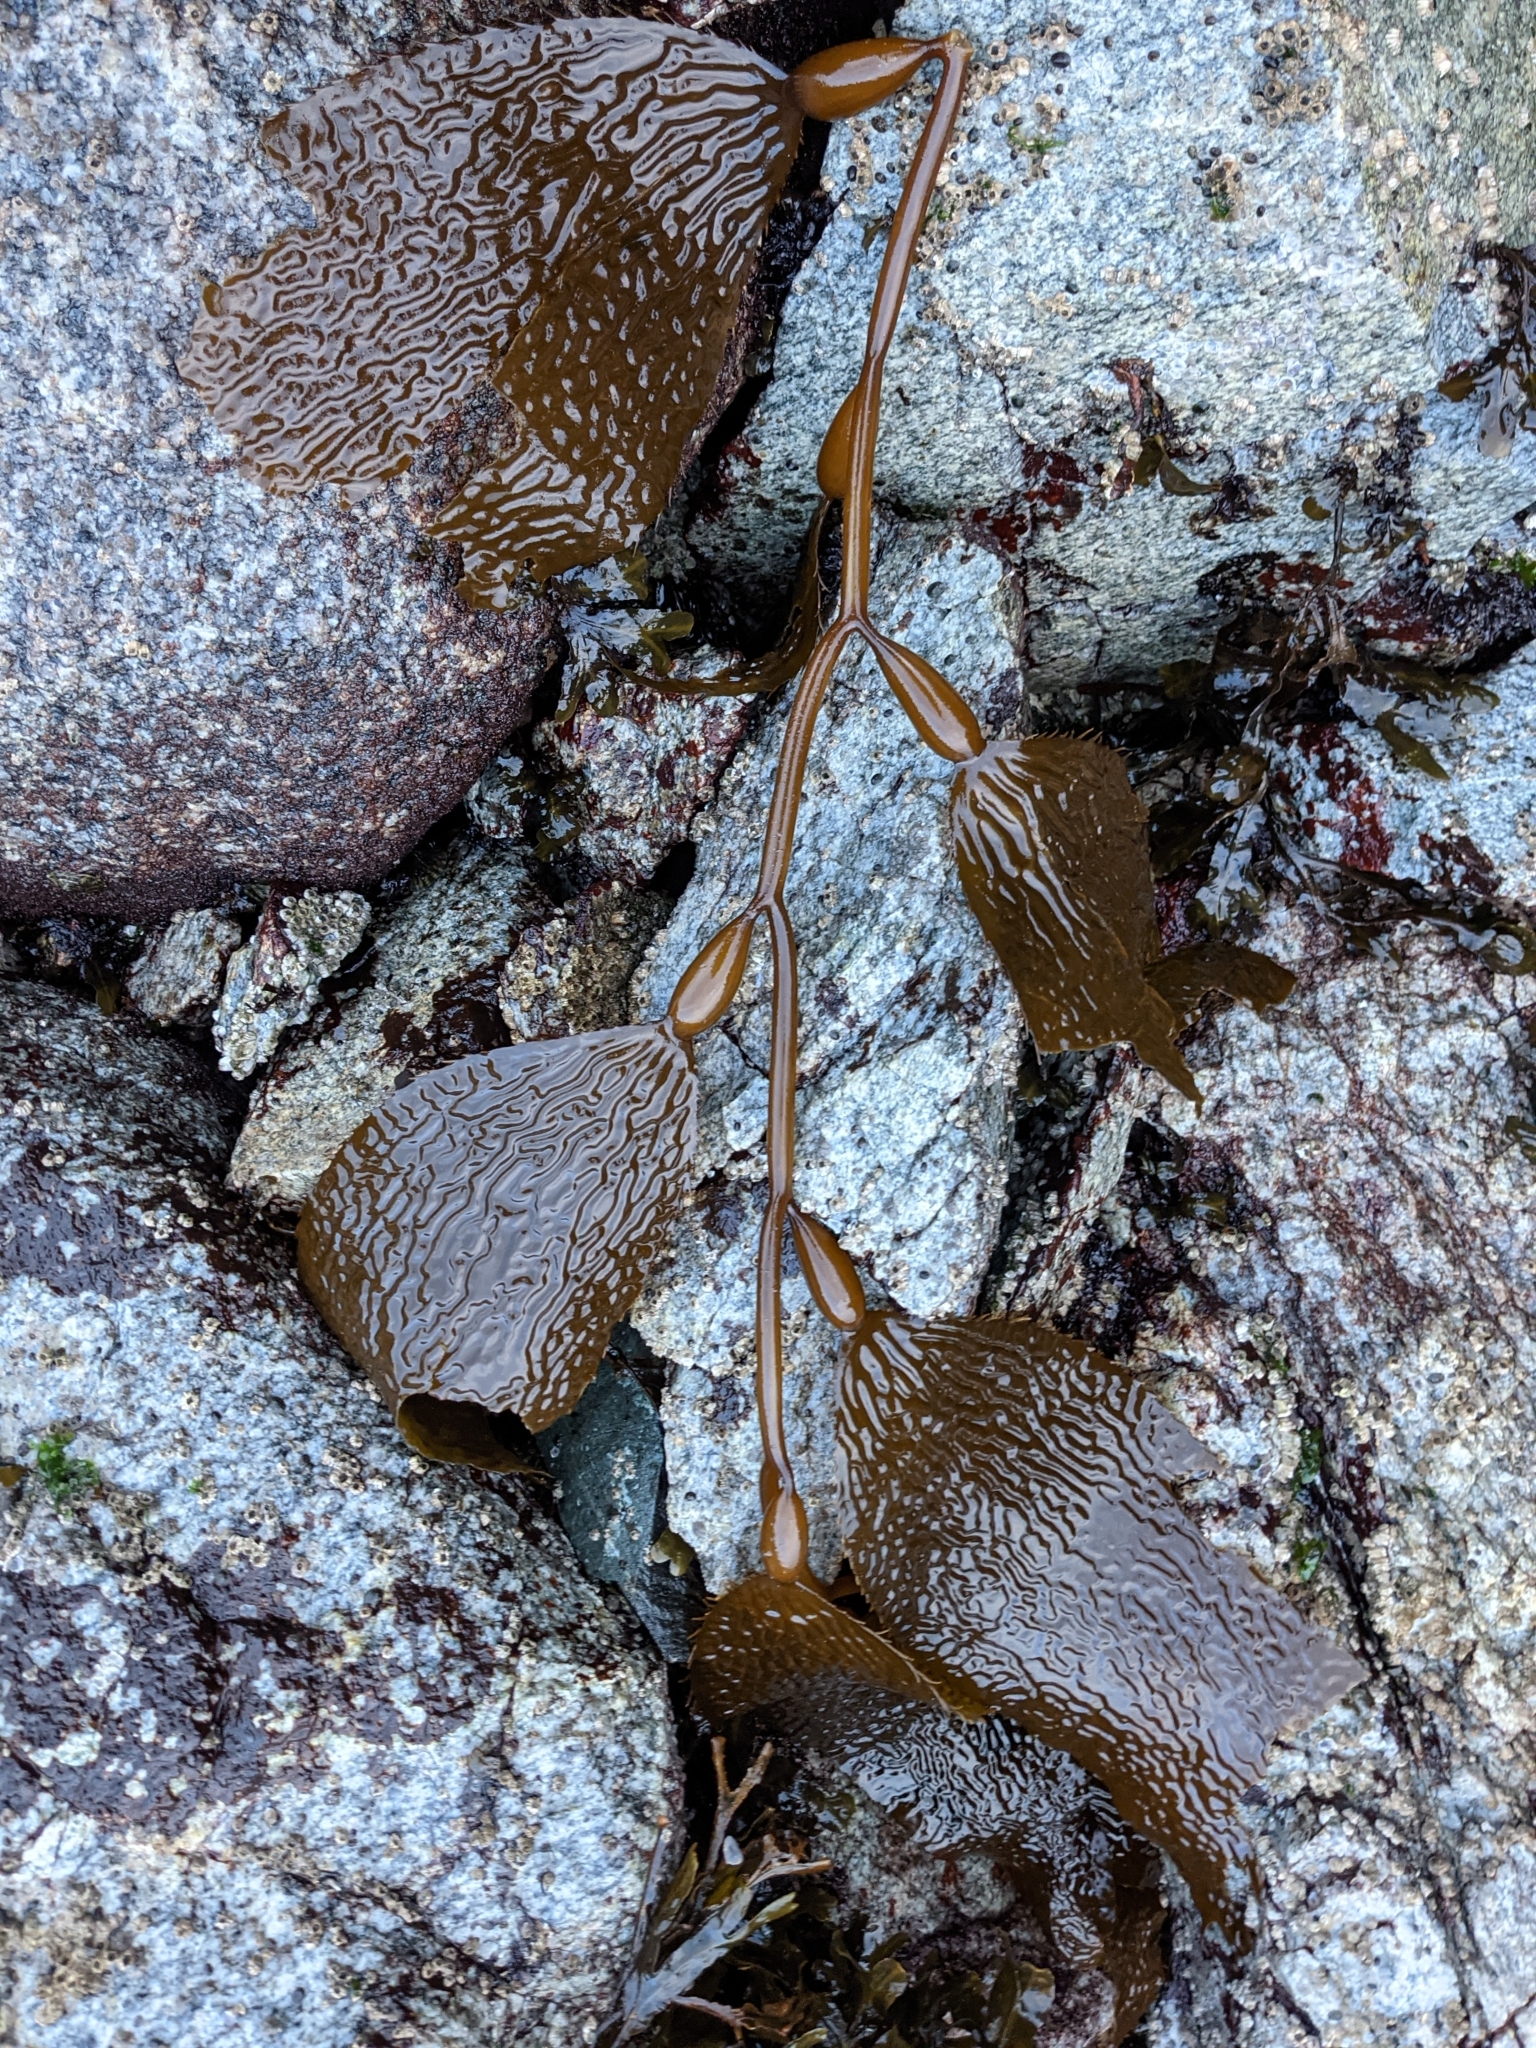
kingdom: Chromista
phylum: Ochrophyta
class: Phaeophyceae
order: Laminariales
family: Laminariaceae
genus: Macrocystis
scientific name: Macrocystis pyrifera
